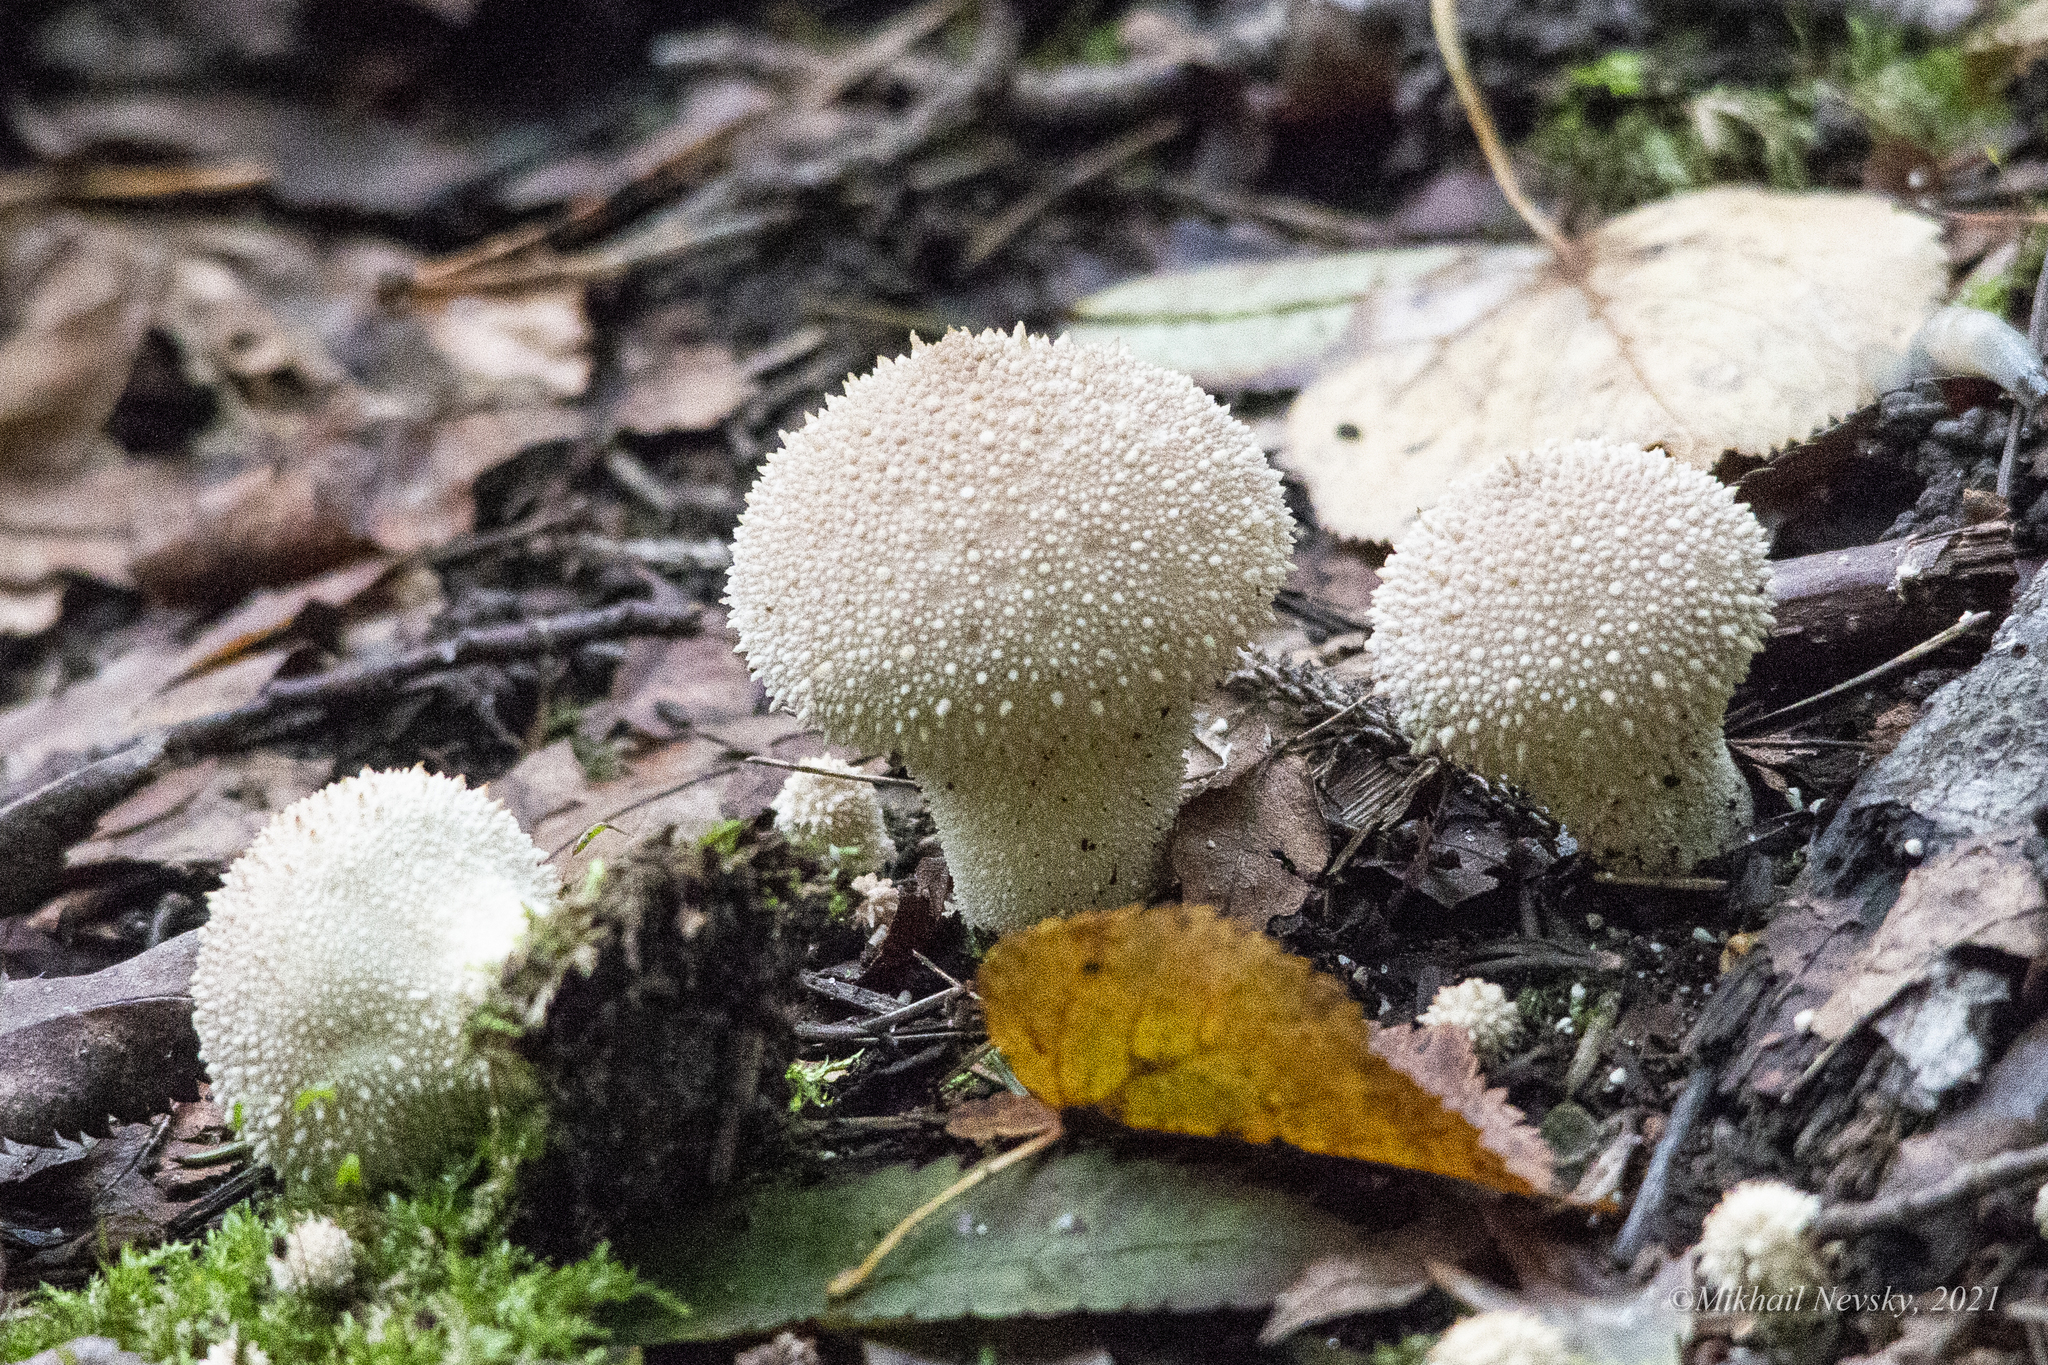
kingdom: Fungi
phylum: Basidiomycota
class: Agaricomycetes
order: Agaricales
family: Lycoperdaceae
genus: Lycoperdon
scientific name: Lycoperdon perlatum
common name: Common puffball
